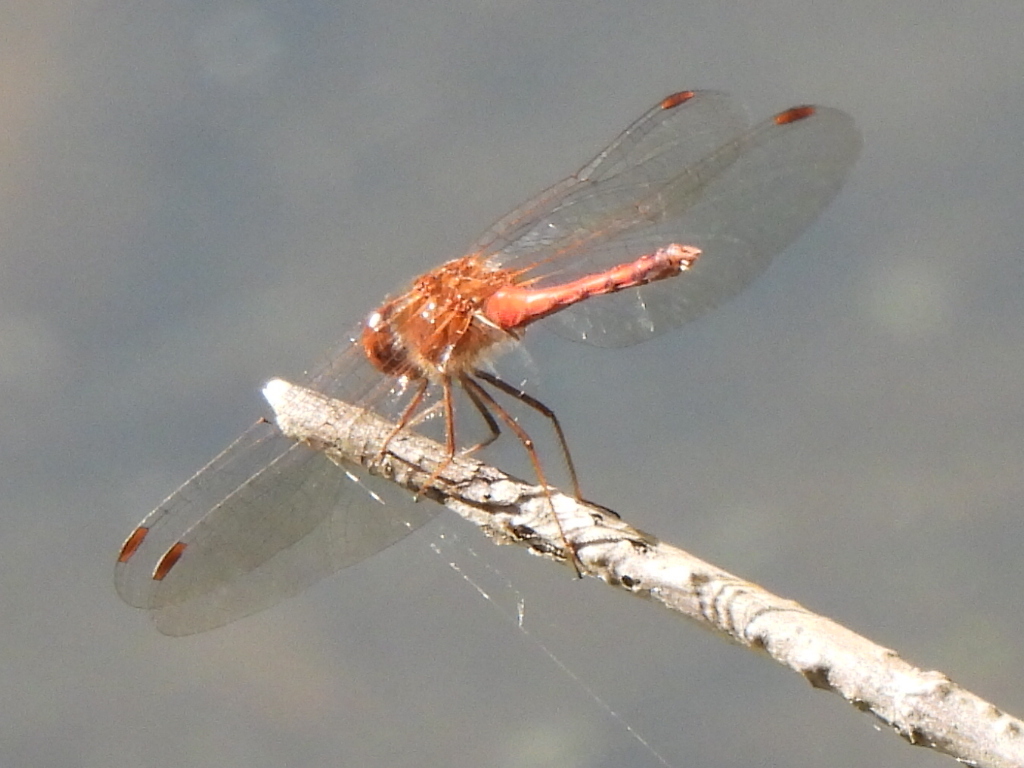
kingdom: Animalia
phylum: Arthropoda
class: Insecta
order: Odonata
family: Libellulidae
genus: Sympetrum
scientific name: Sympetrum vicinum
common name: Autumn meadowhawk
